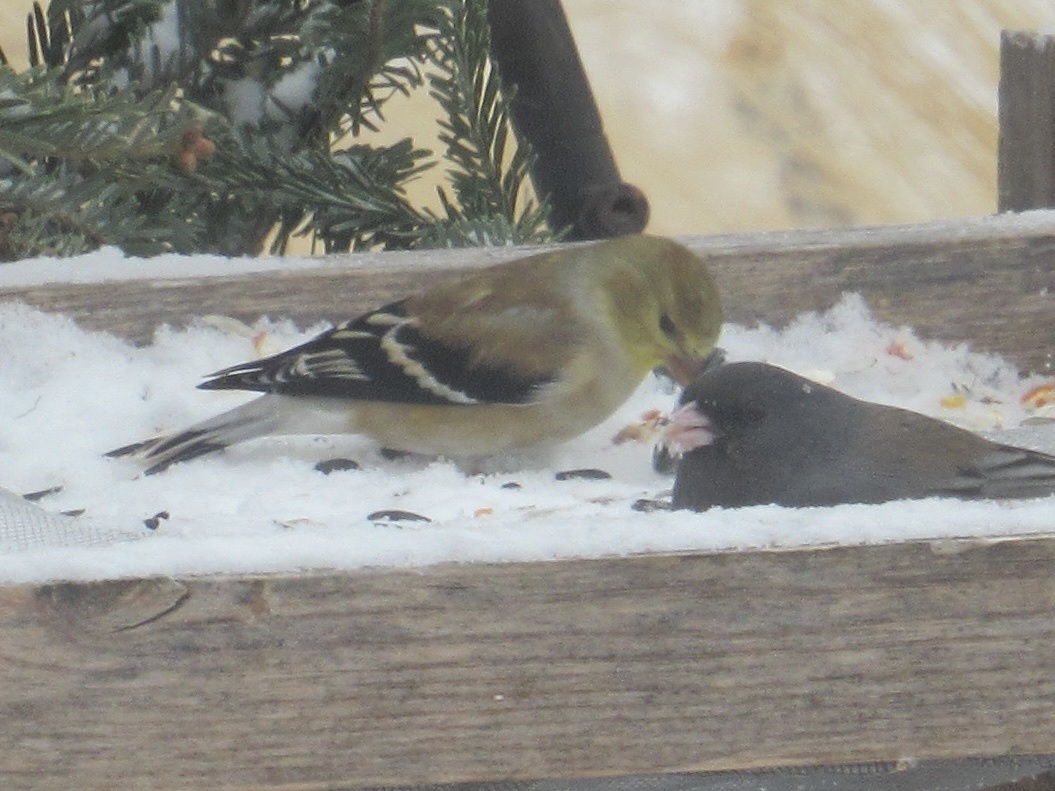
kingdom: Animalia
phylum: Chordata
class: Aves
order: Passeriformes
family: Fringillidae
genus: Spinus
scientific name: Spinus tristis
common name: American goldfinch
